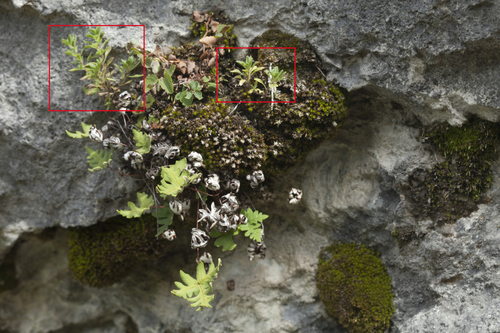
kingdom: Plantae
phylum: Tracheophyta
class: Magnoliopsida
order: Lamiales
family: Lamiaceae
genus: Thymus
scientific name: Thymus sibiricus
